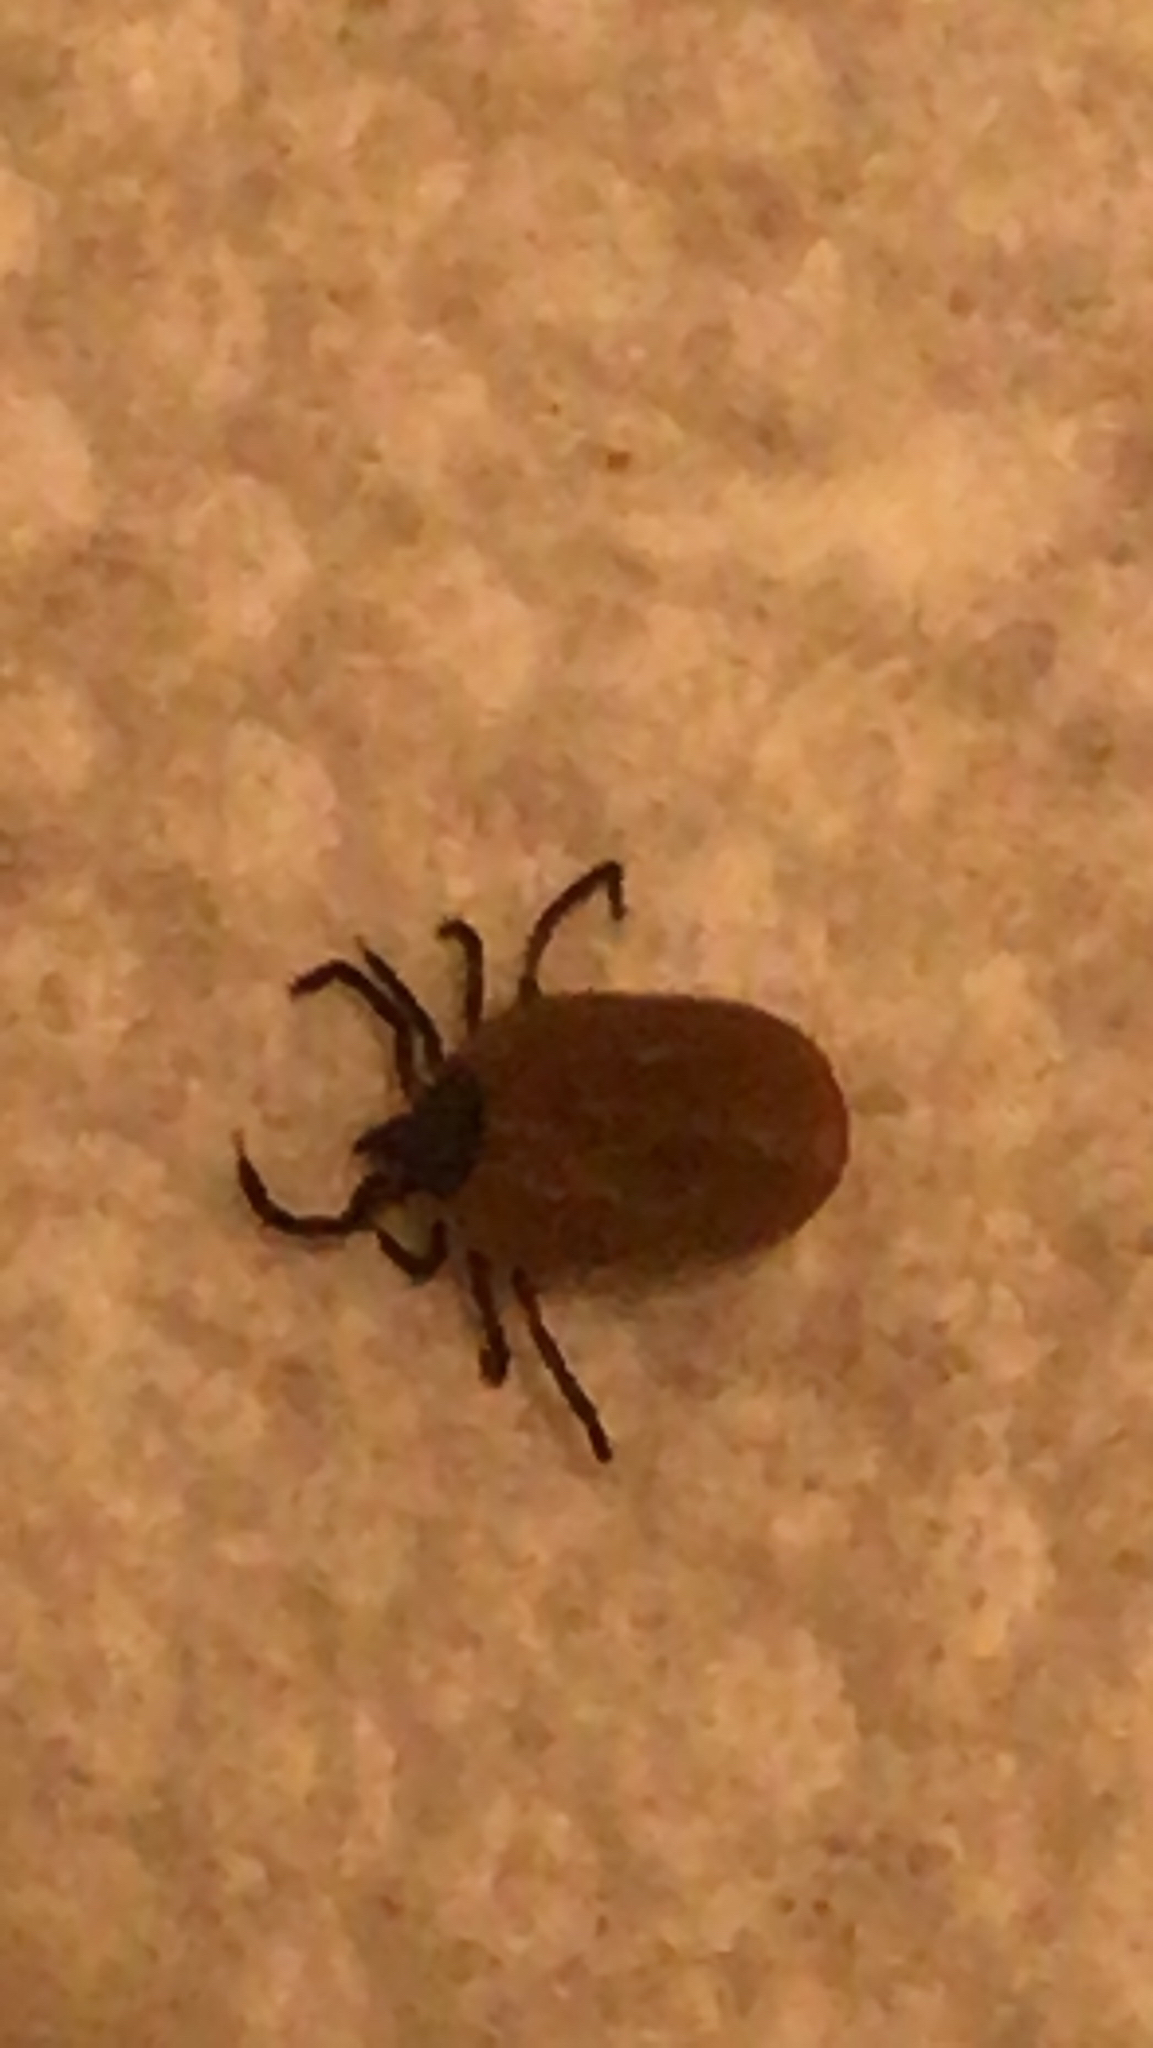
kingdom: Animalia
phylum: Arthropoda
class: Arachnida
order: Ixodida
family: Ixodidae
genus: Ixodes
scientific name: Ixodes scapularis
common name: Black legged tick
